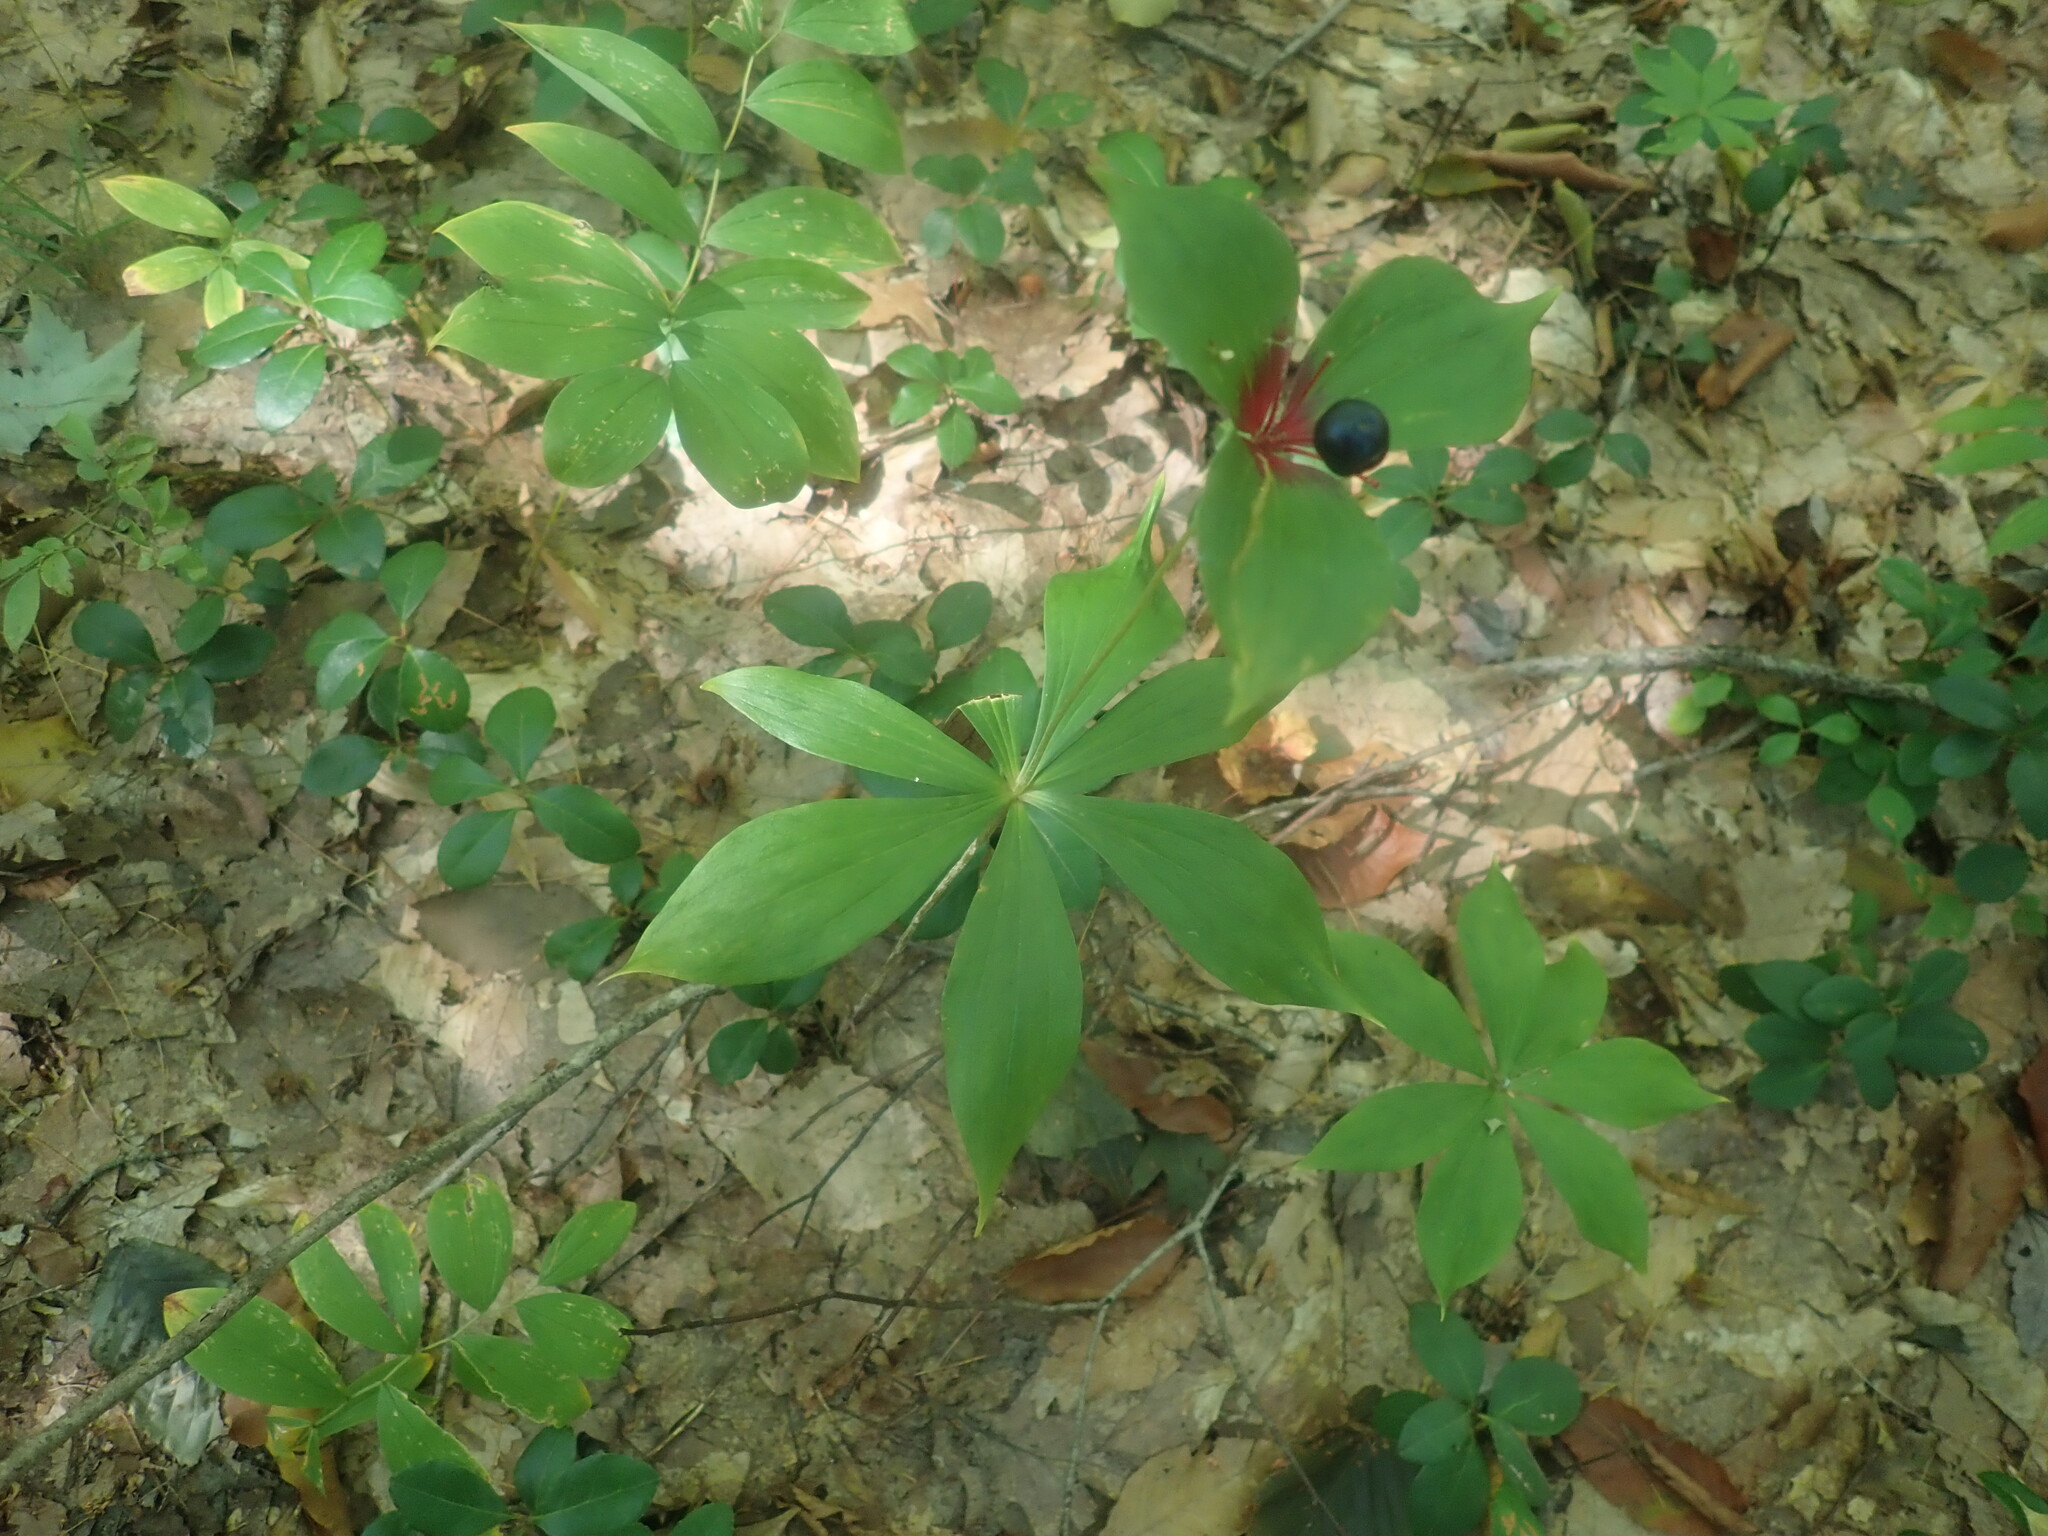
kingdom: Plantae
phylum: Tracheophyta
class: Liliopsida
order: Liliales
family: Liliaceae
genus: Medeola
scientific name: Medeola virginiana
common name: Indian cucumber-root
